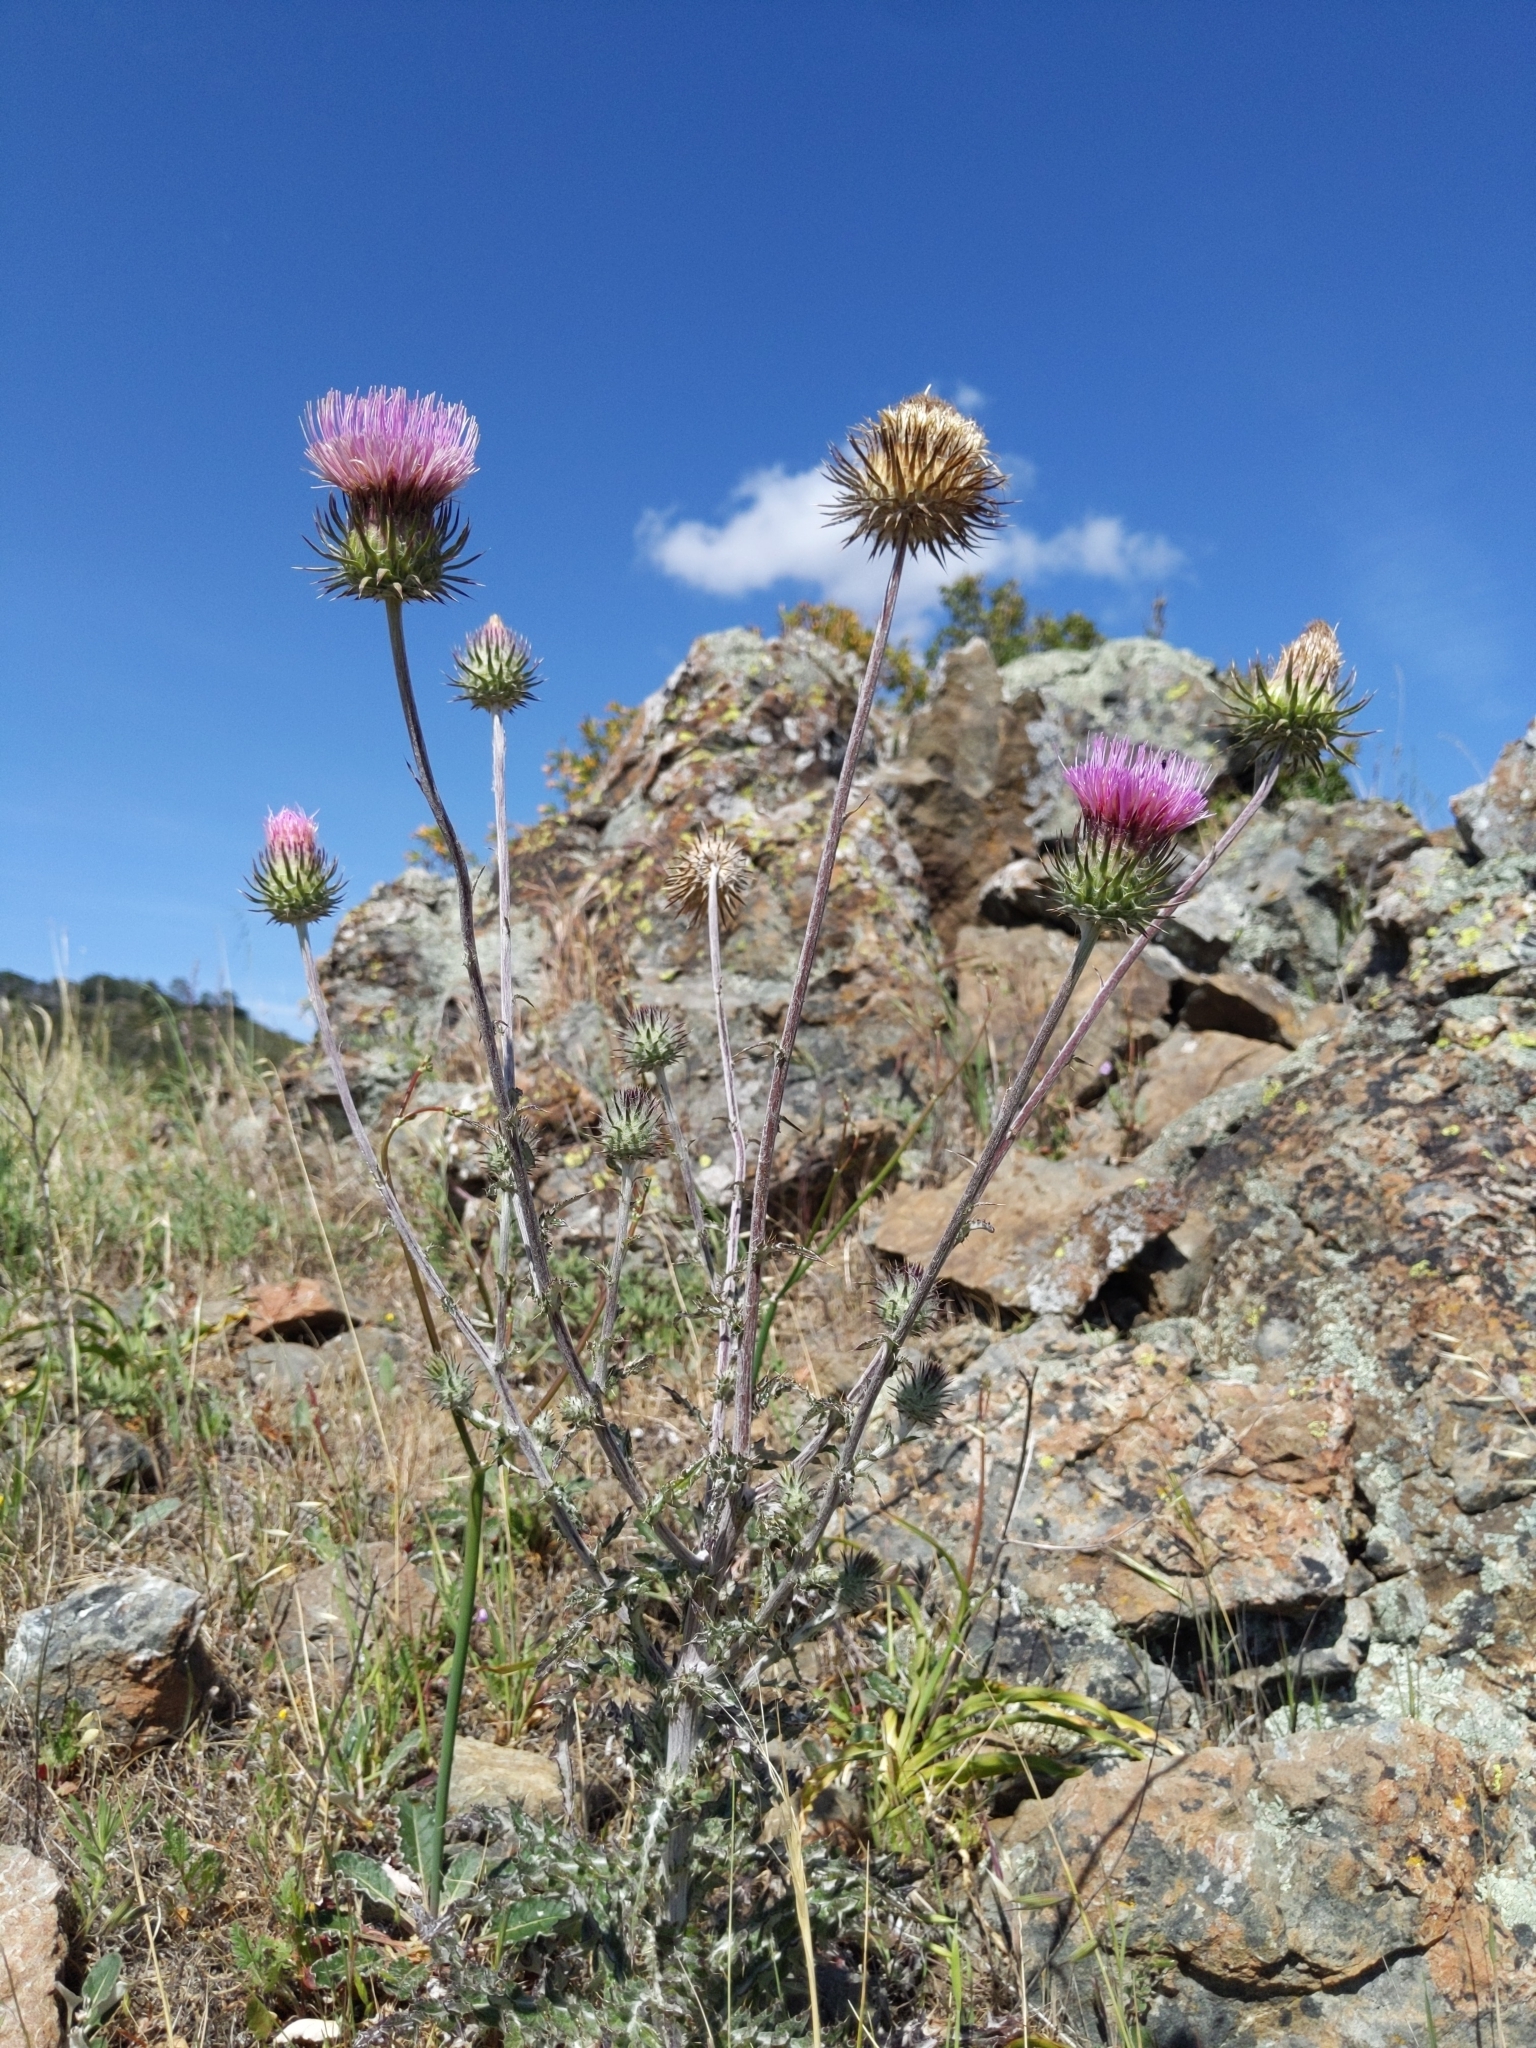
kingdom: Plantae
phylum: Tracheophyta
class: Magnoliopsida
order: Asterales
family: Asteraceae
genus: Cirsium
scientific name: Cirsium occidentale
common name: Western thistle
